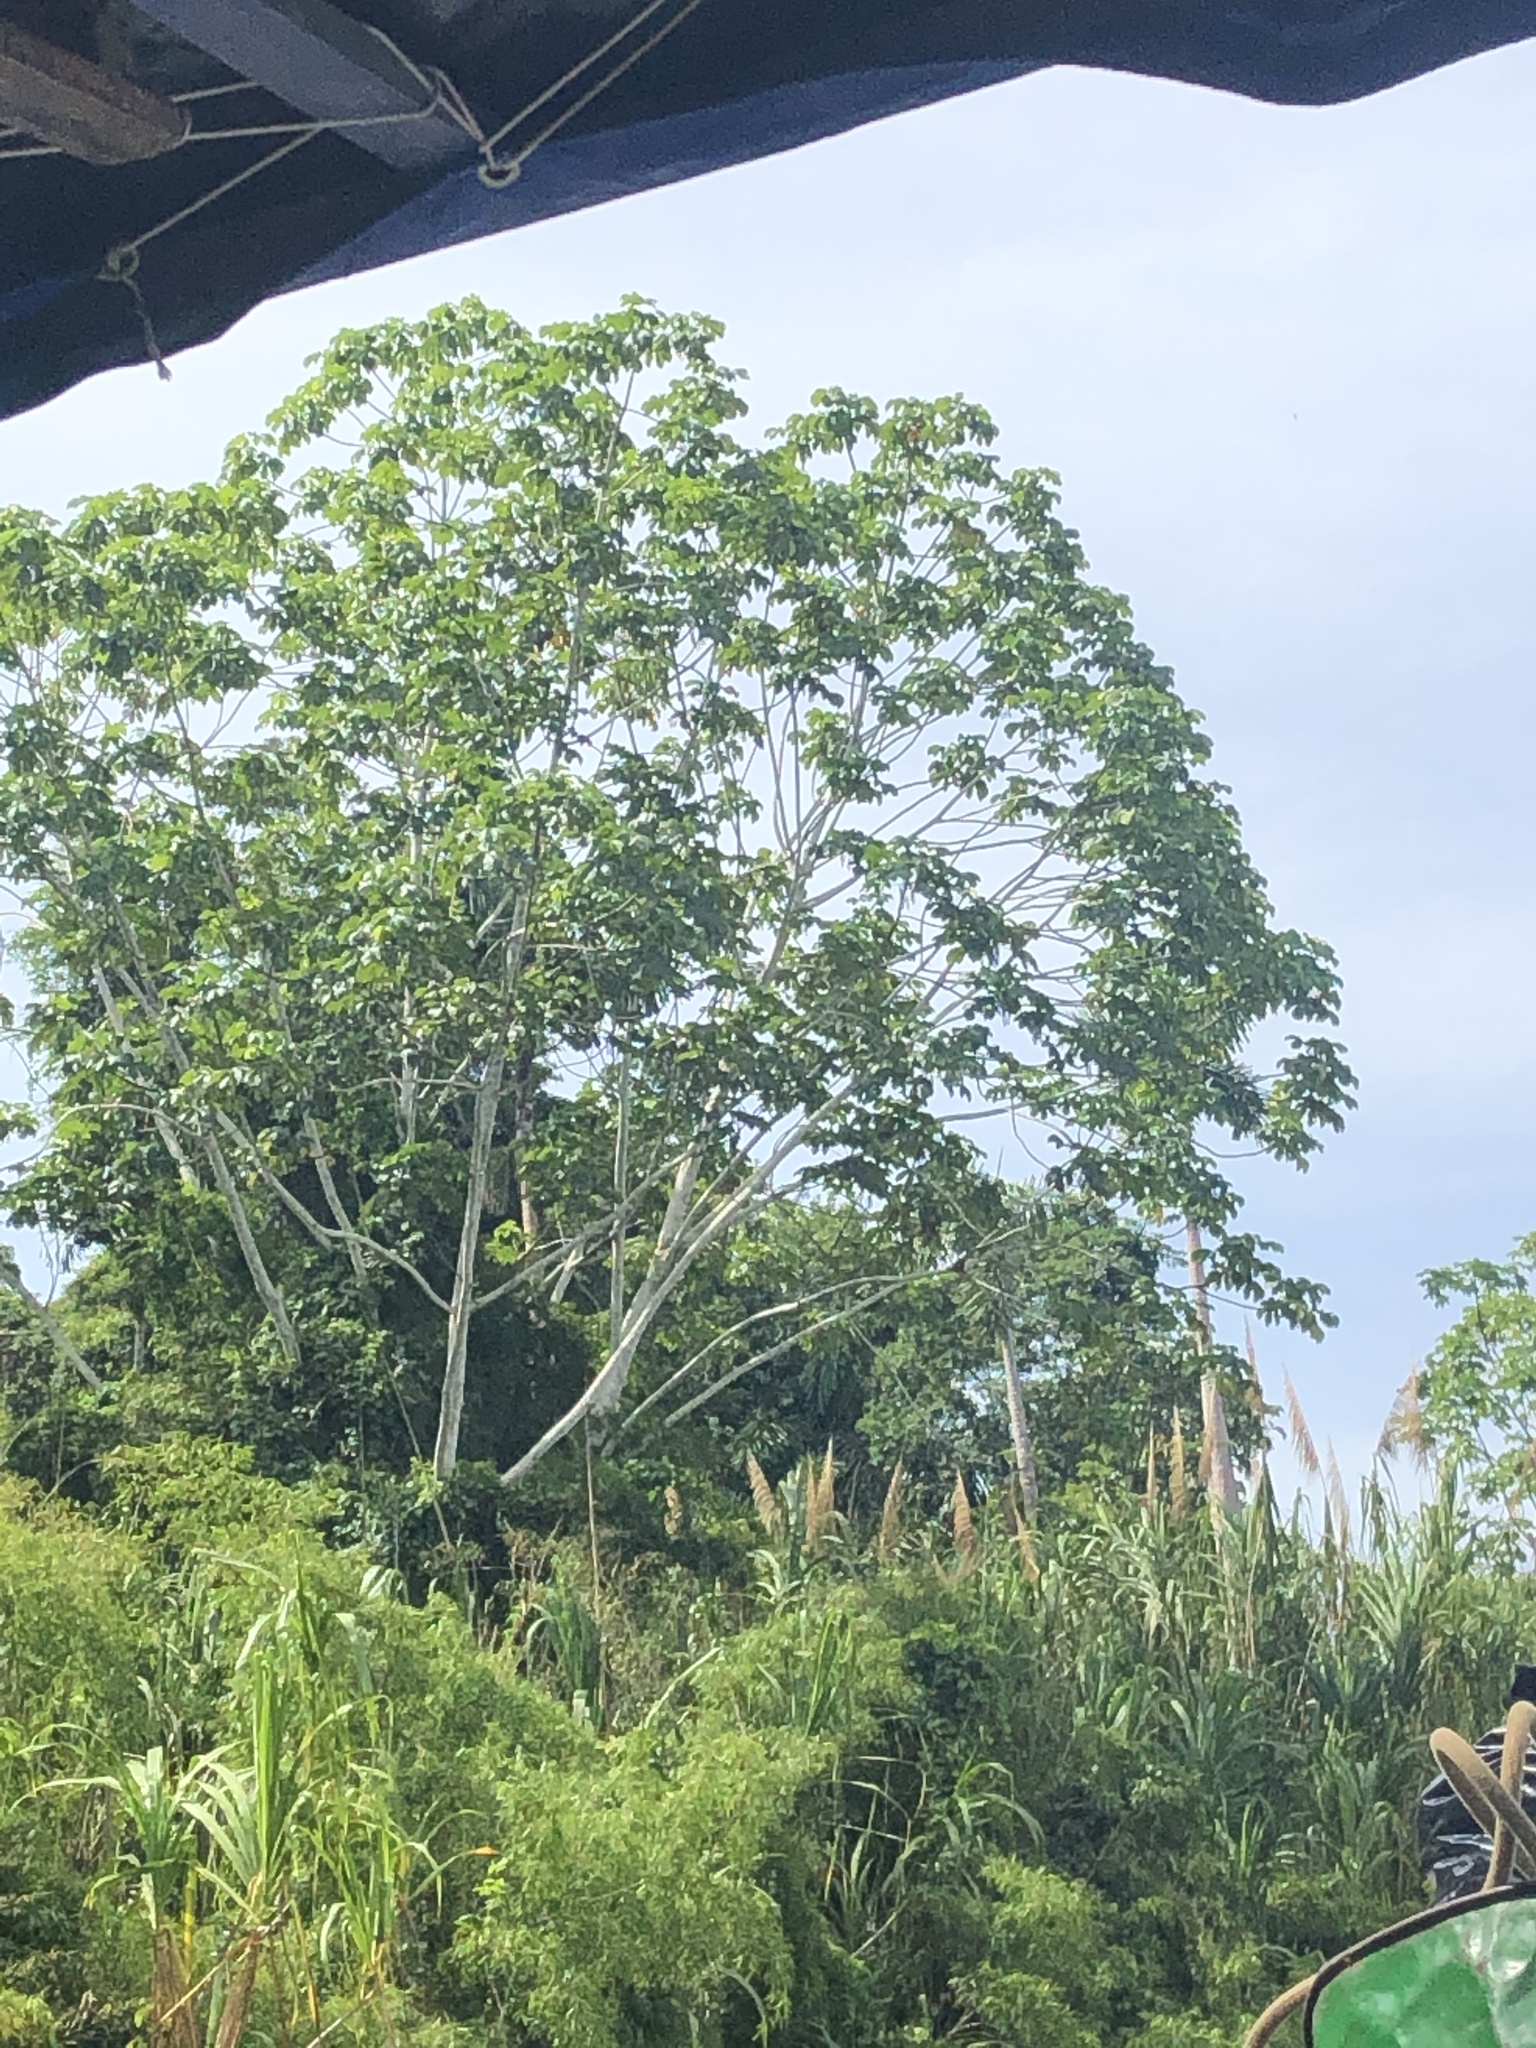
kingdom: Plantae
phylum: Tracheophyta
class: Liliopsida
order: Poales
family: Poaceae
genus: Gynerium
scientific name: Gynerium sagittatum
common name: Wild cane
